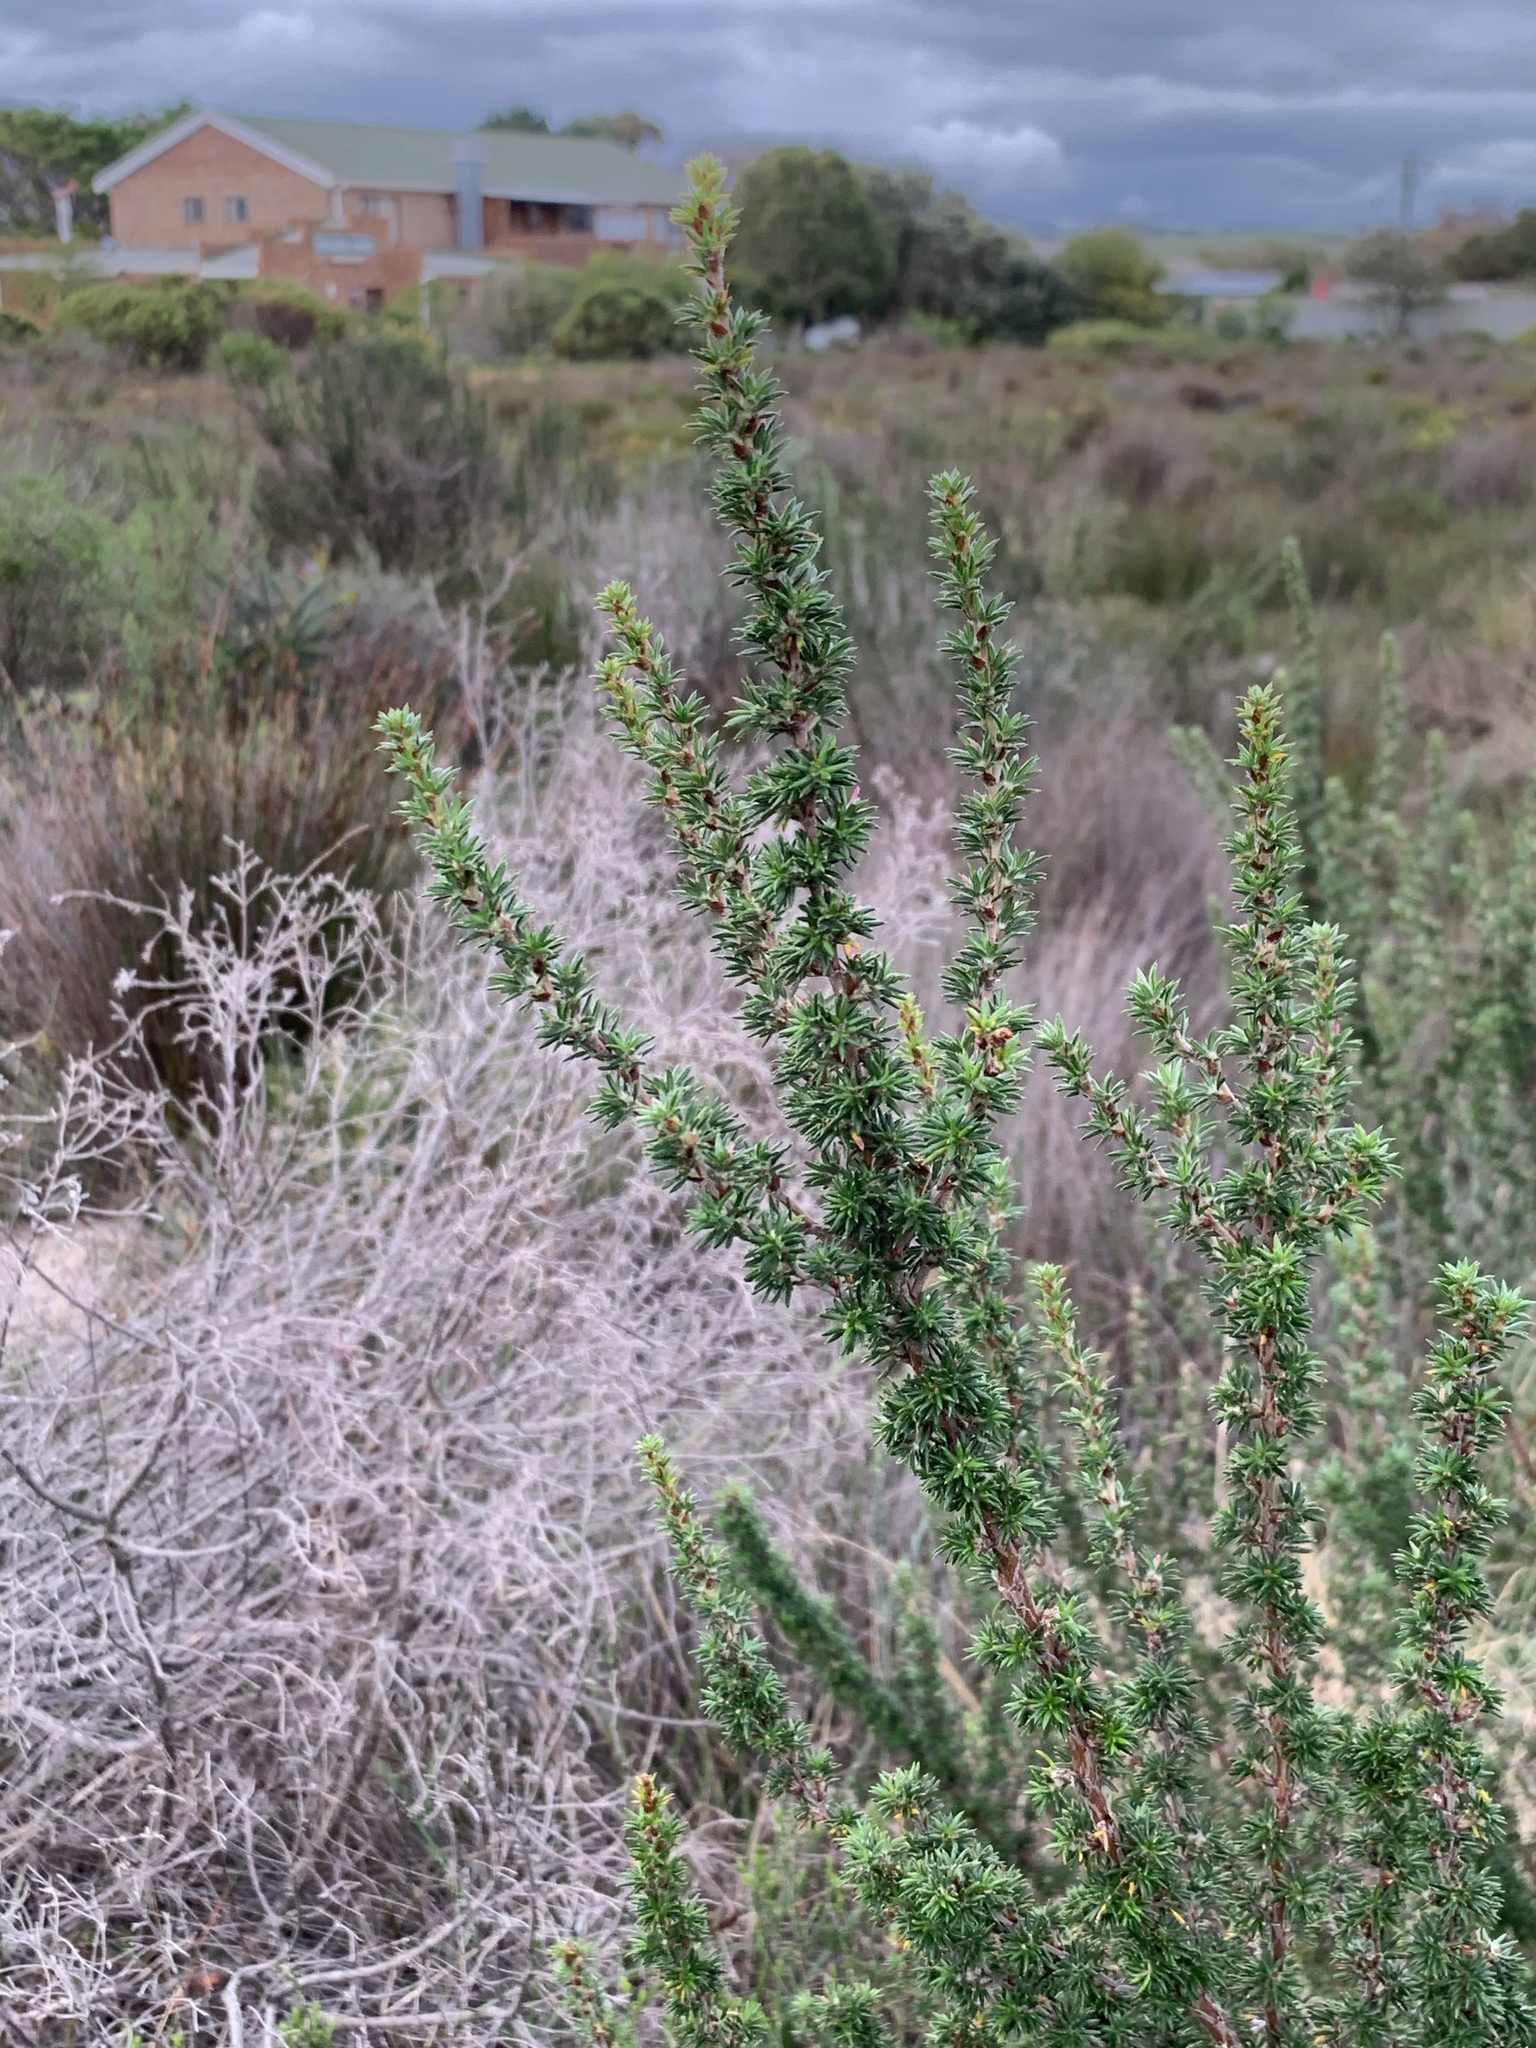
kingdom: Plantae
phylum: Tracheophyta
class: Magnoliopsida
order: Rosales
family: Rosaceae
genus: Cliffortia
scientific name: Cliffortia stricta
